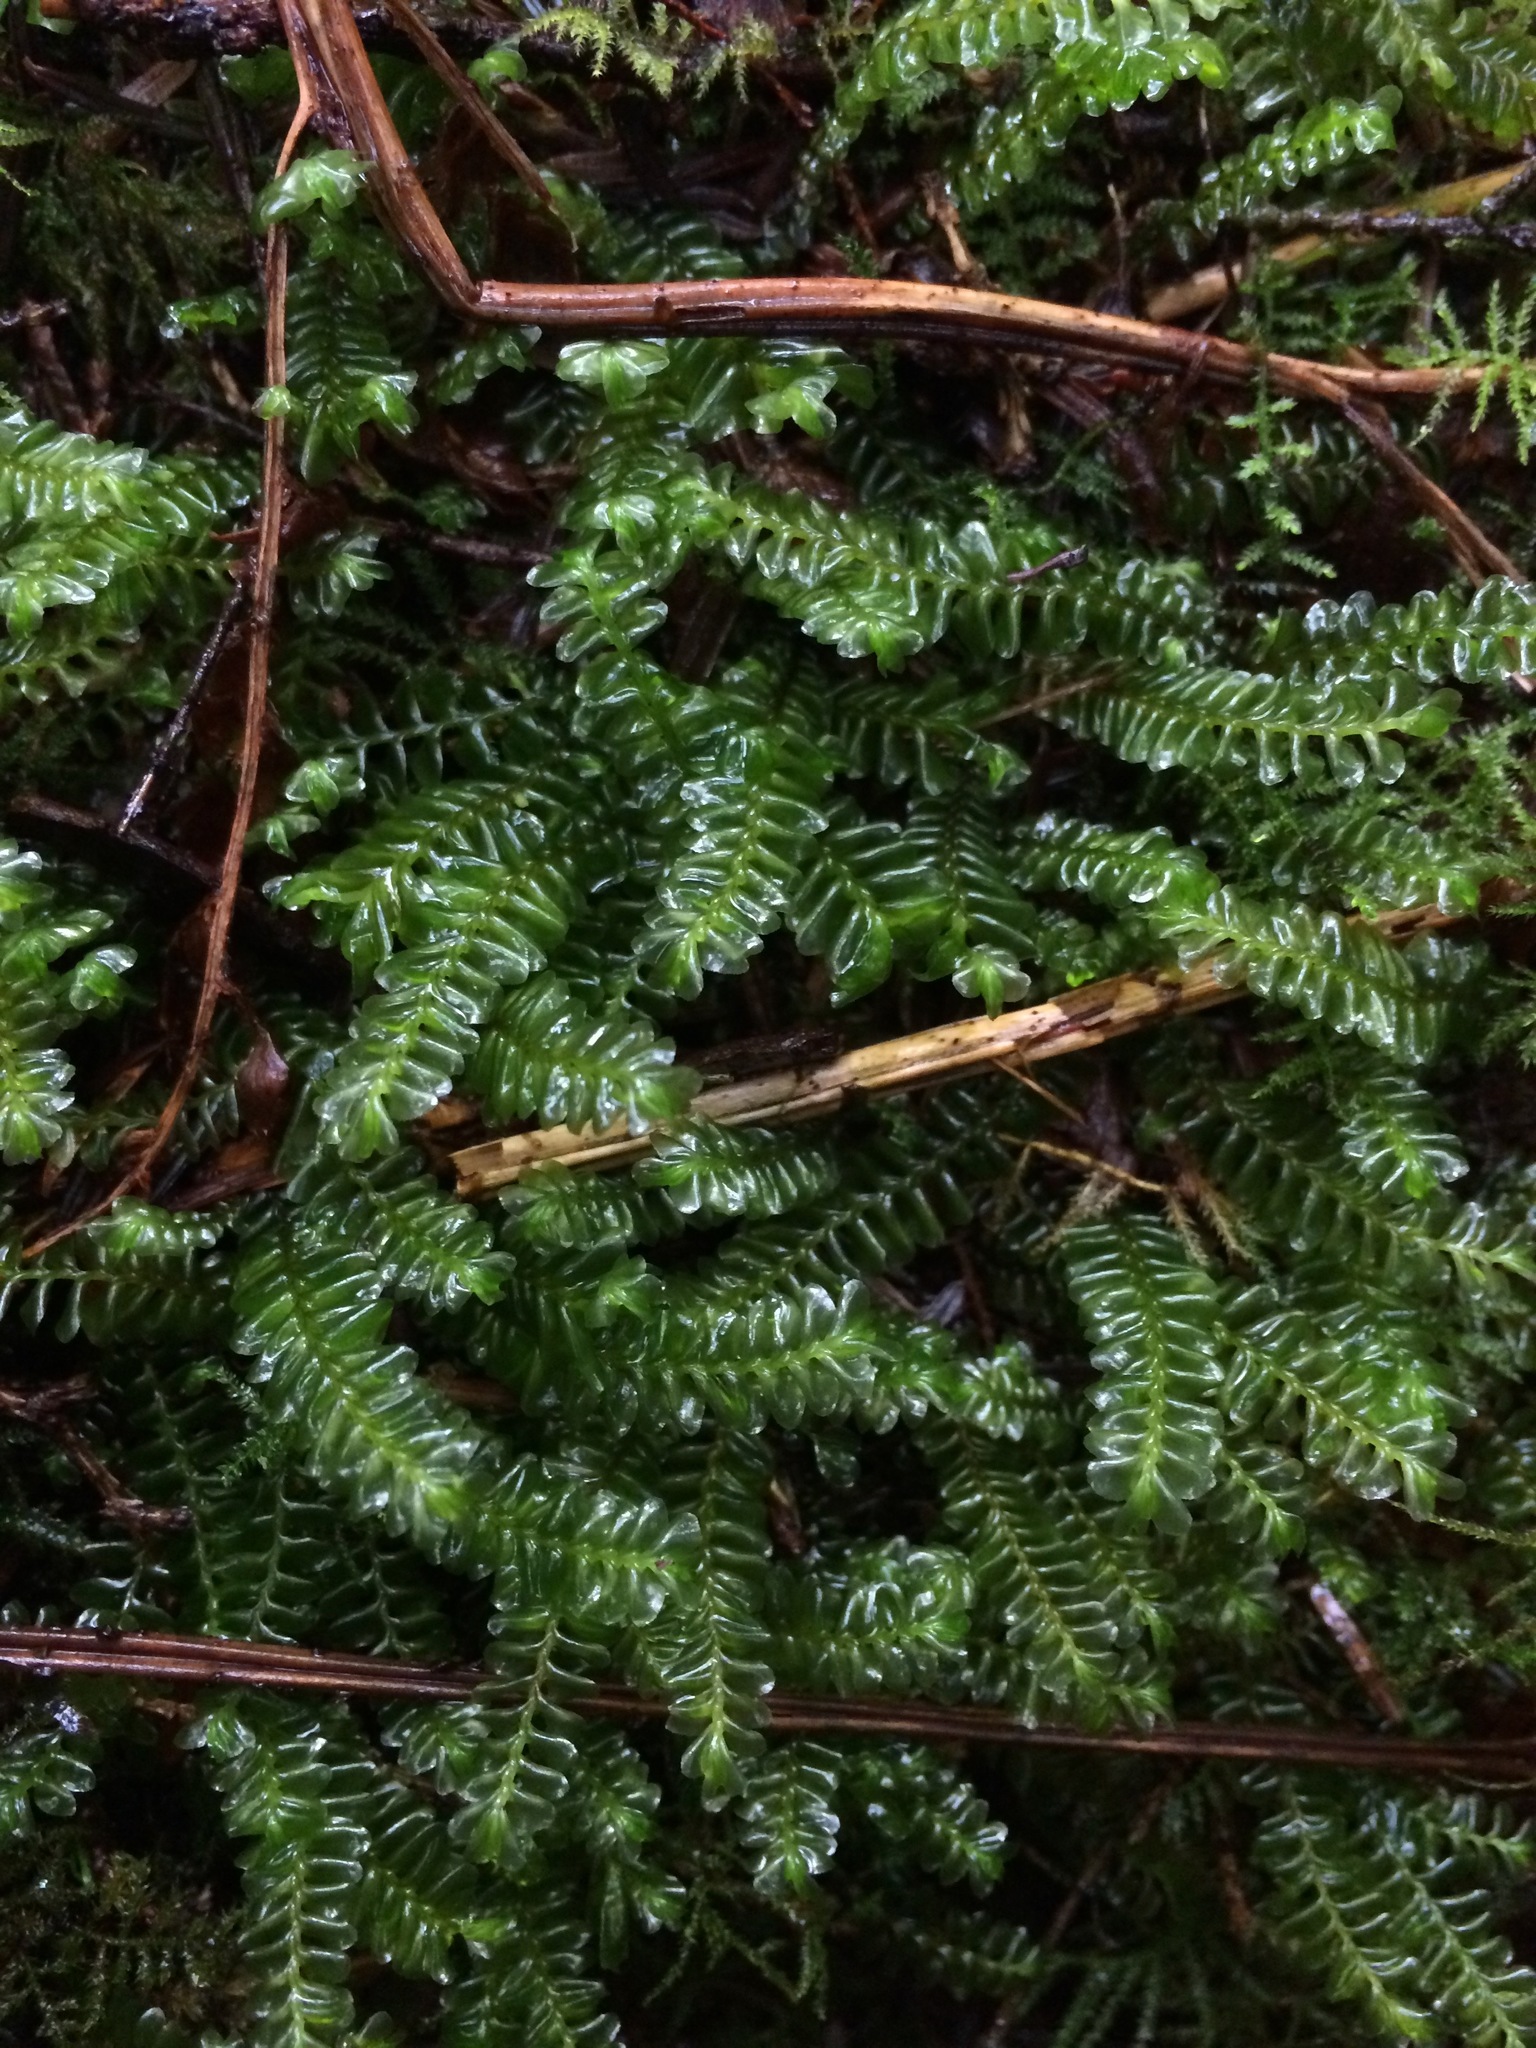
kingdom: Plantae
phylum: Marchantiophyta
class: Jungermanniopsida
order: Jungermanniales
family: Plagiochilaceae
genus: Plagiochila
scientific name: Plagiochila porelloides
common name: Lesser featherwort
